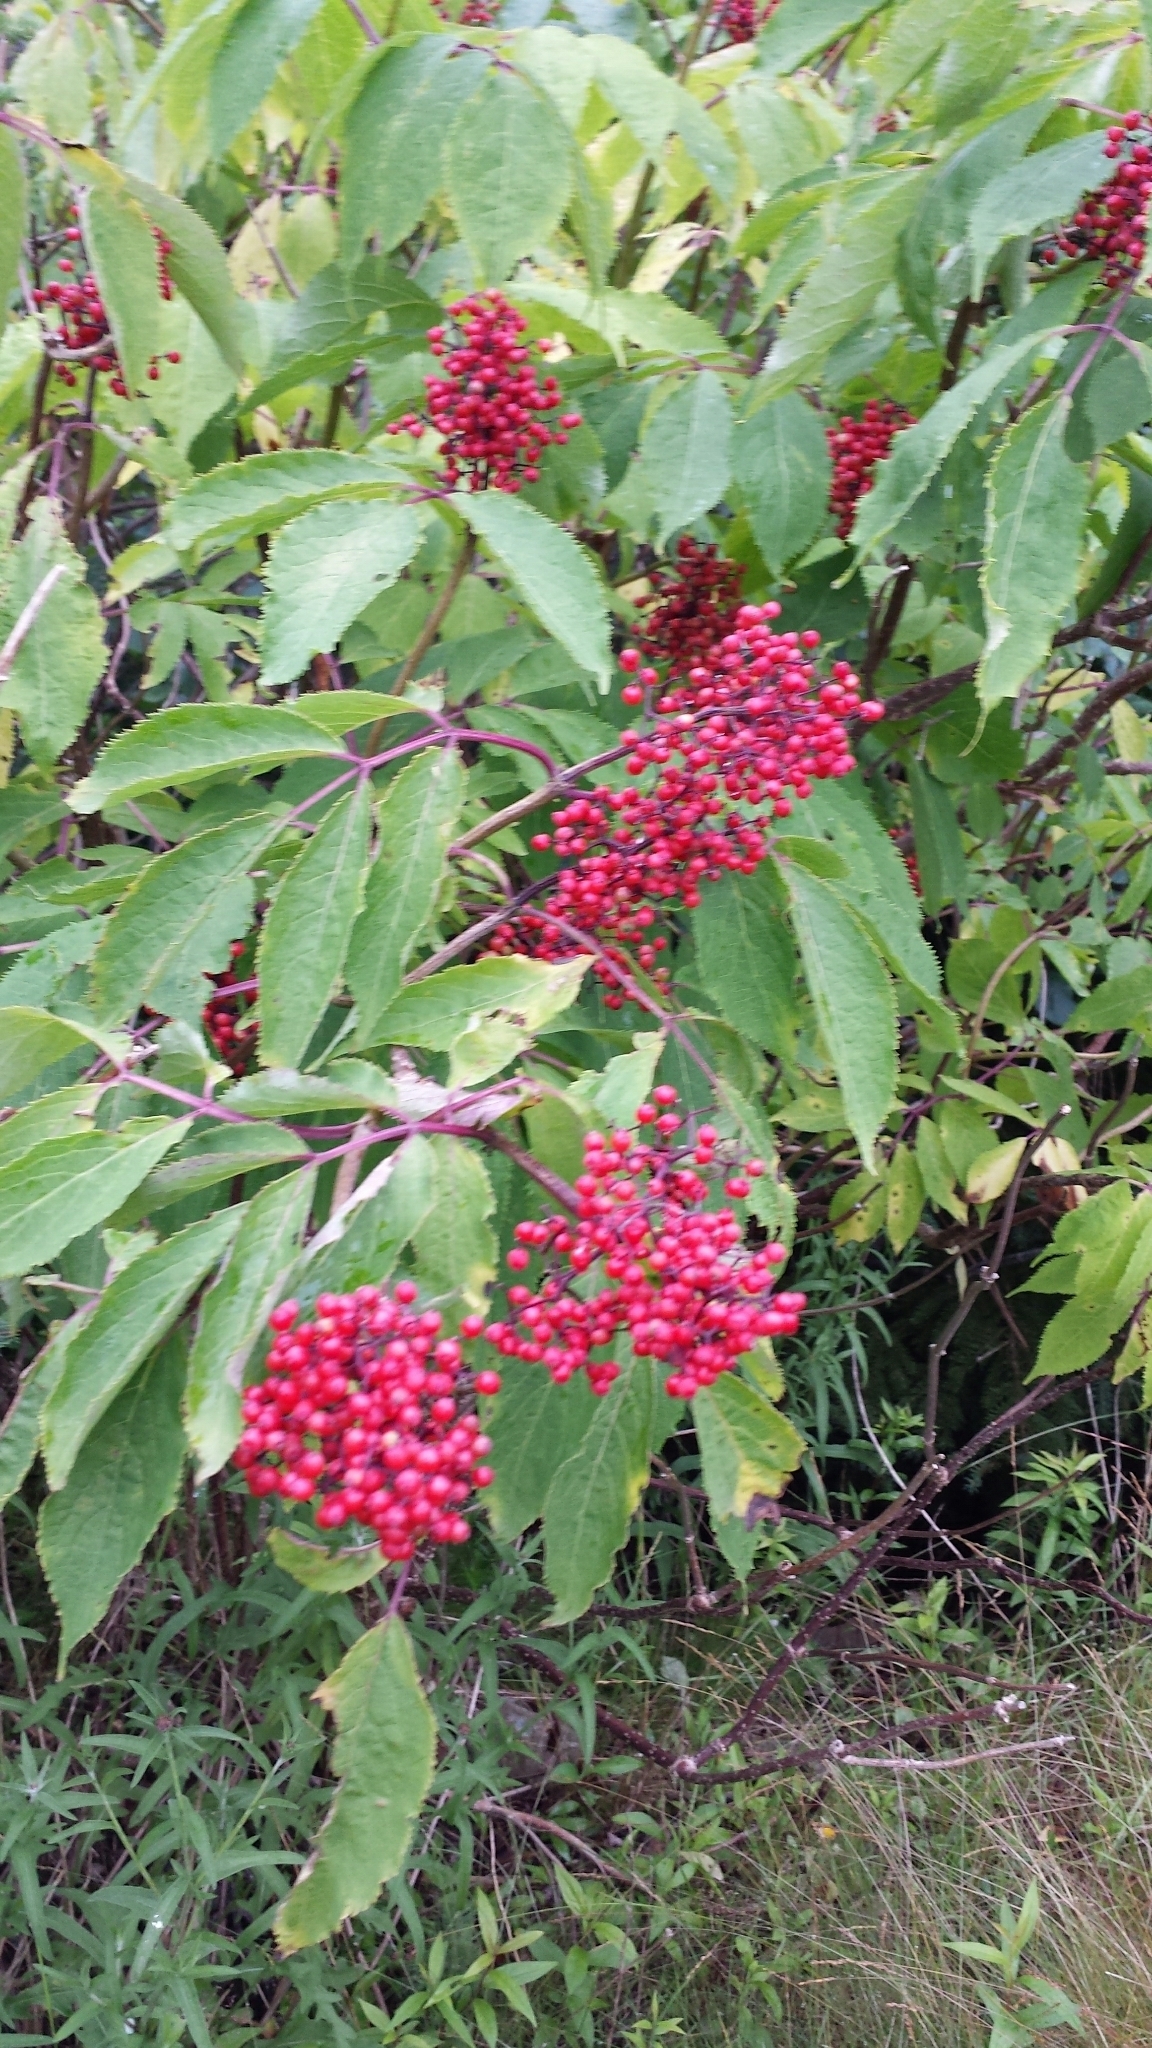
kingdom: Plantae
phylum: Tracheophyta
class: Magnoliopsida
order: Dipsacales
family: Viburnaceae
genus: Sambucus
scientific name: Sambucus racemosa
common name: Red-berried elder
